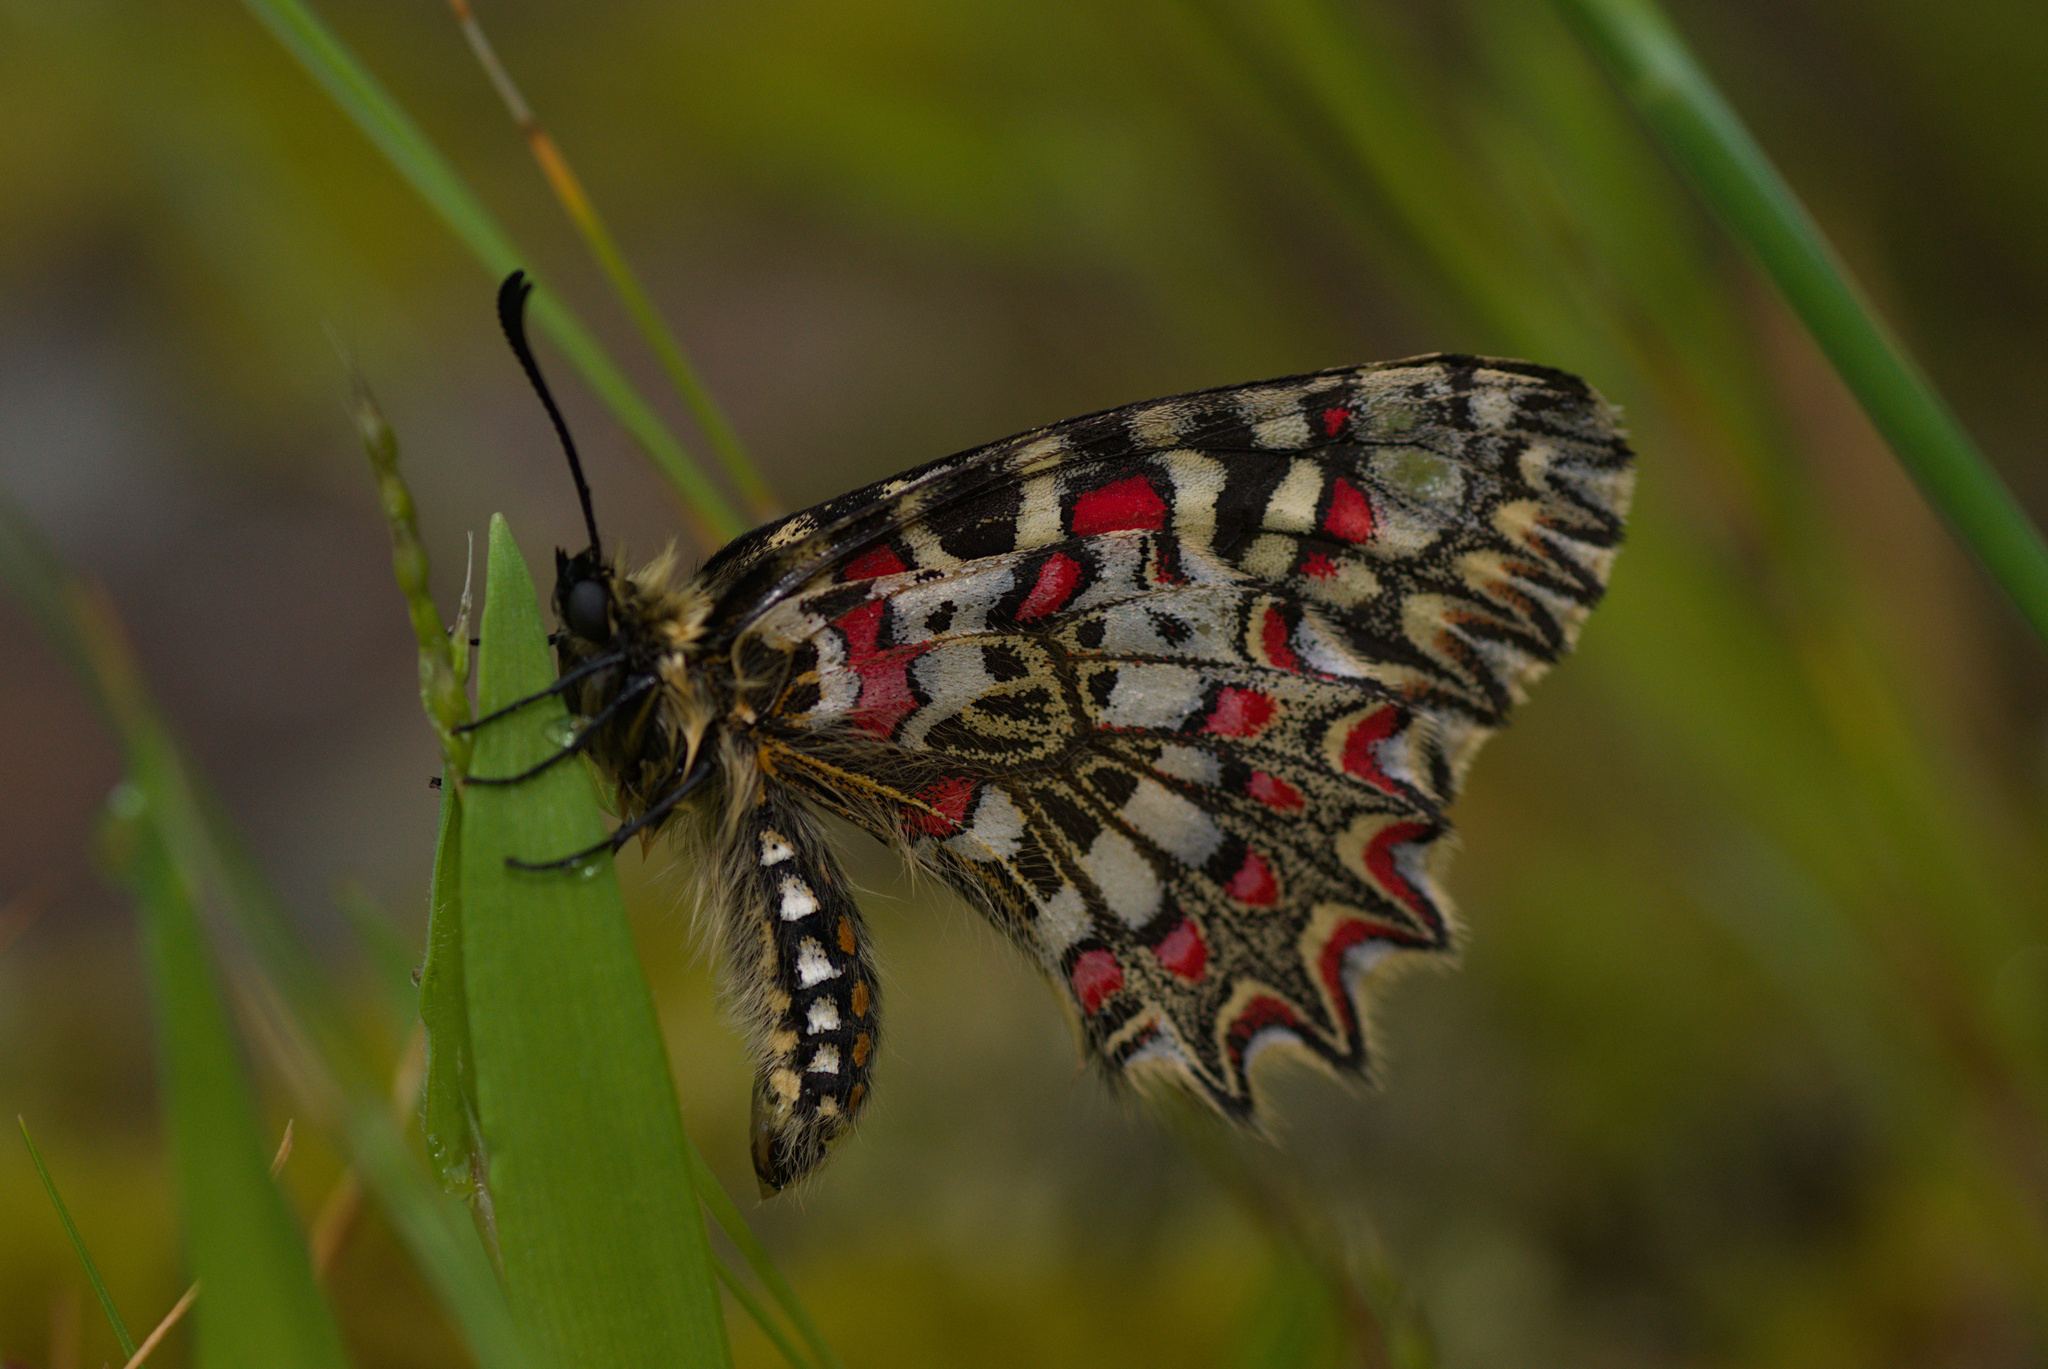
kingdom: Animalia
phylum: Arthropoda
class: Insecta
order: Lepidoptera
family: Papilionidae
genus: Zerynthia
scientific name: Zerynthia rumina
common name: Spanish festoon
